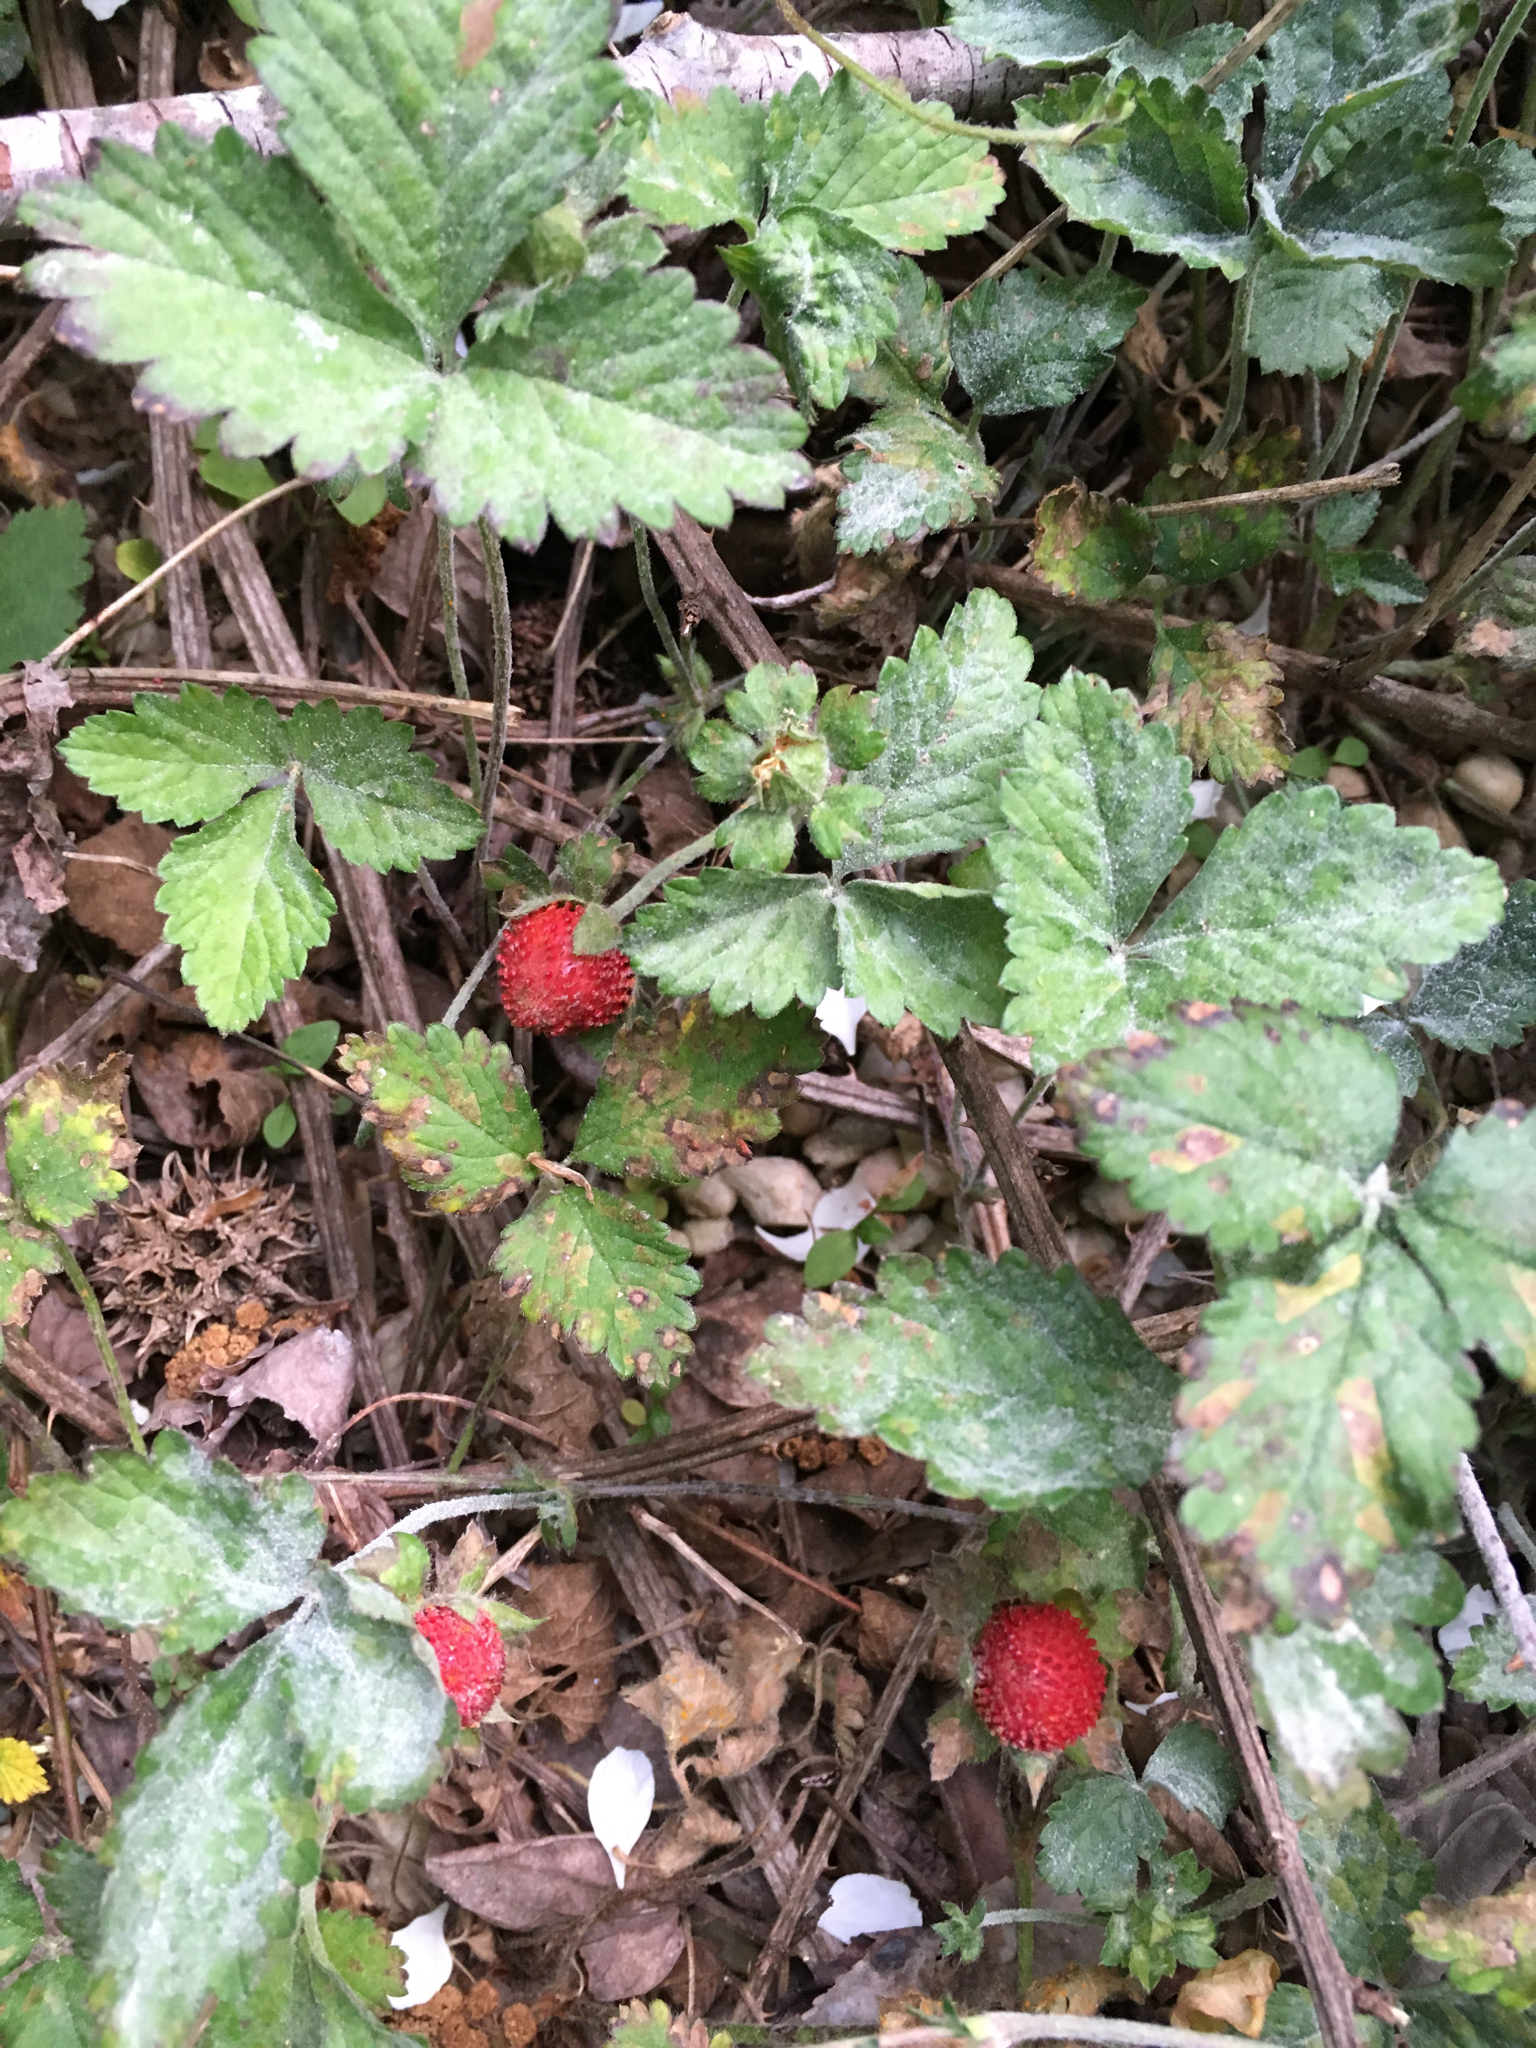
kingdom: Plantae
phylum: Tracheophyta
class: Magnoliopsida
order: Rosales
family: Rosaceae
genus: Potentilla
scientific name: Potentilla indica
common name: Yellow-flowered strawberry
